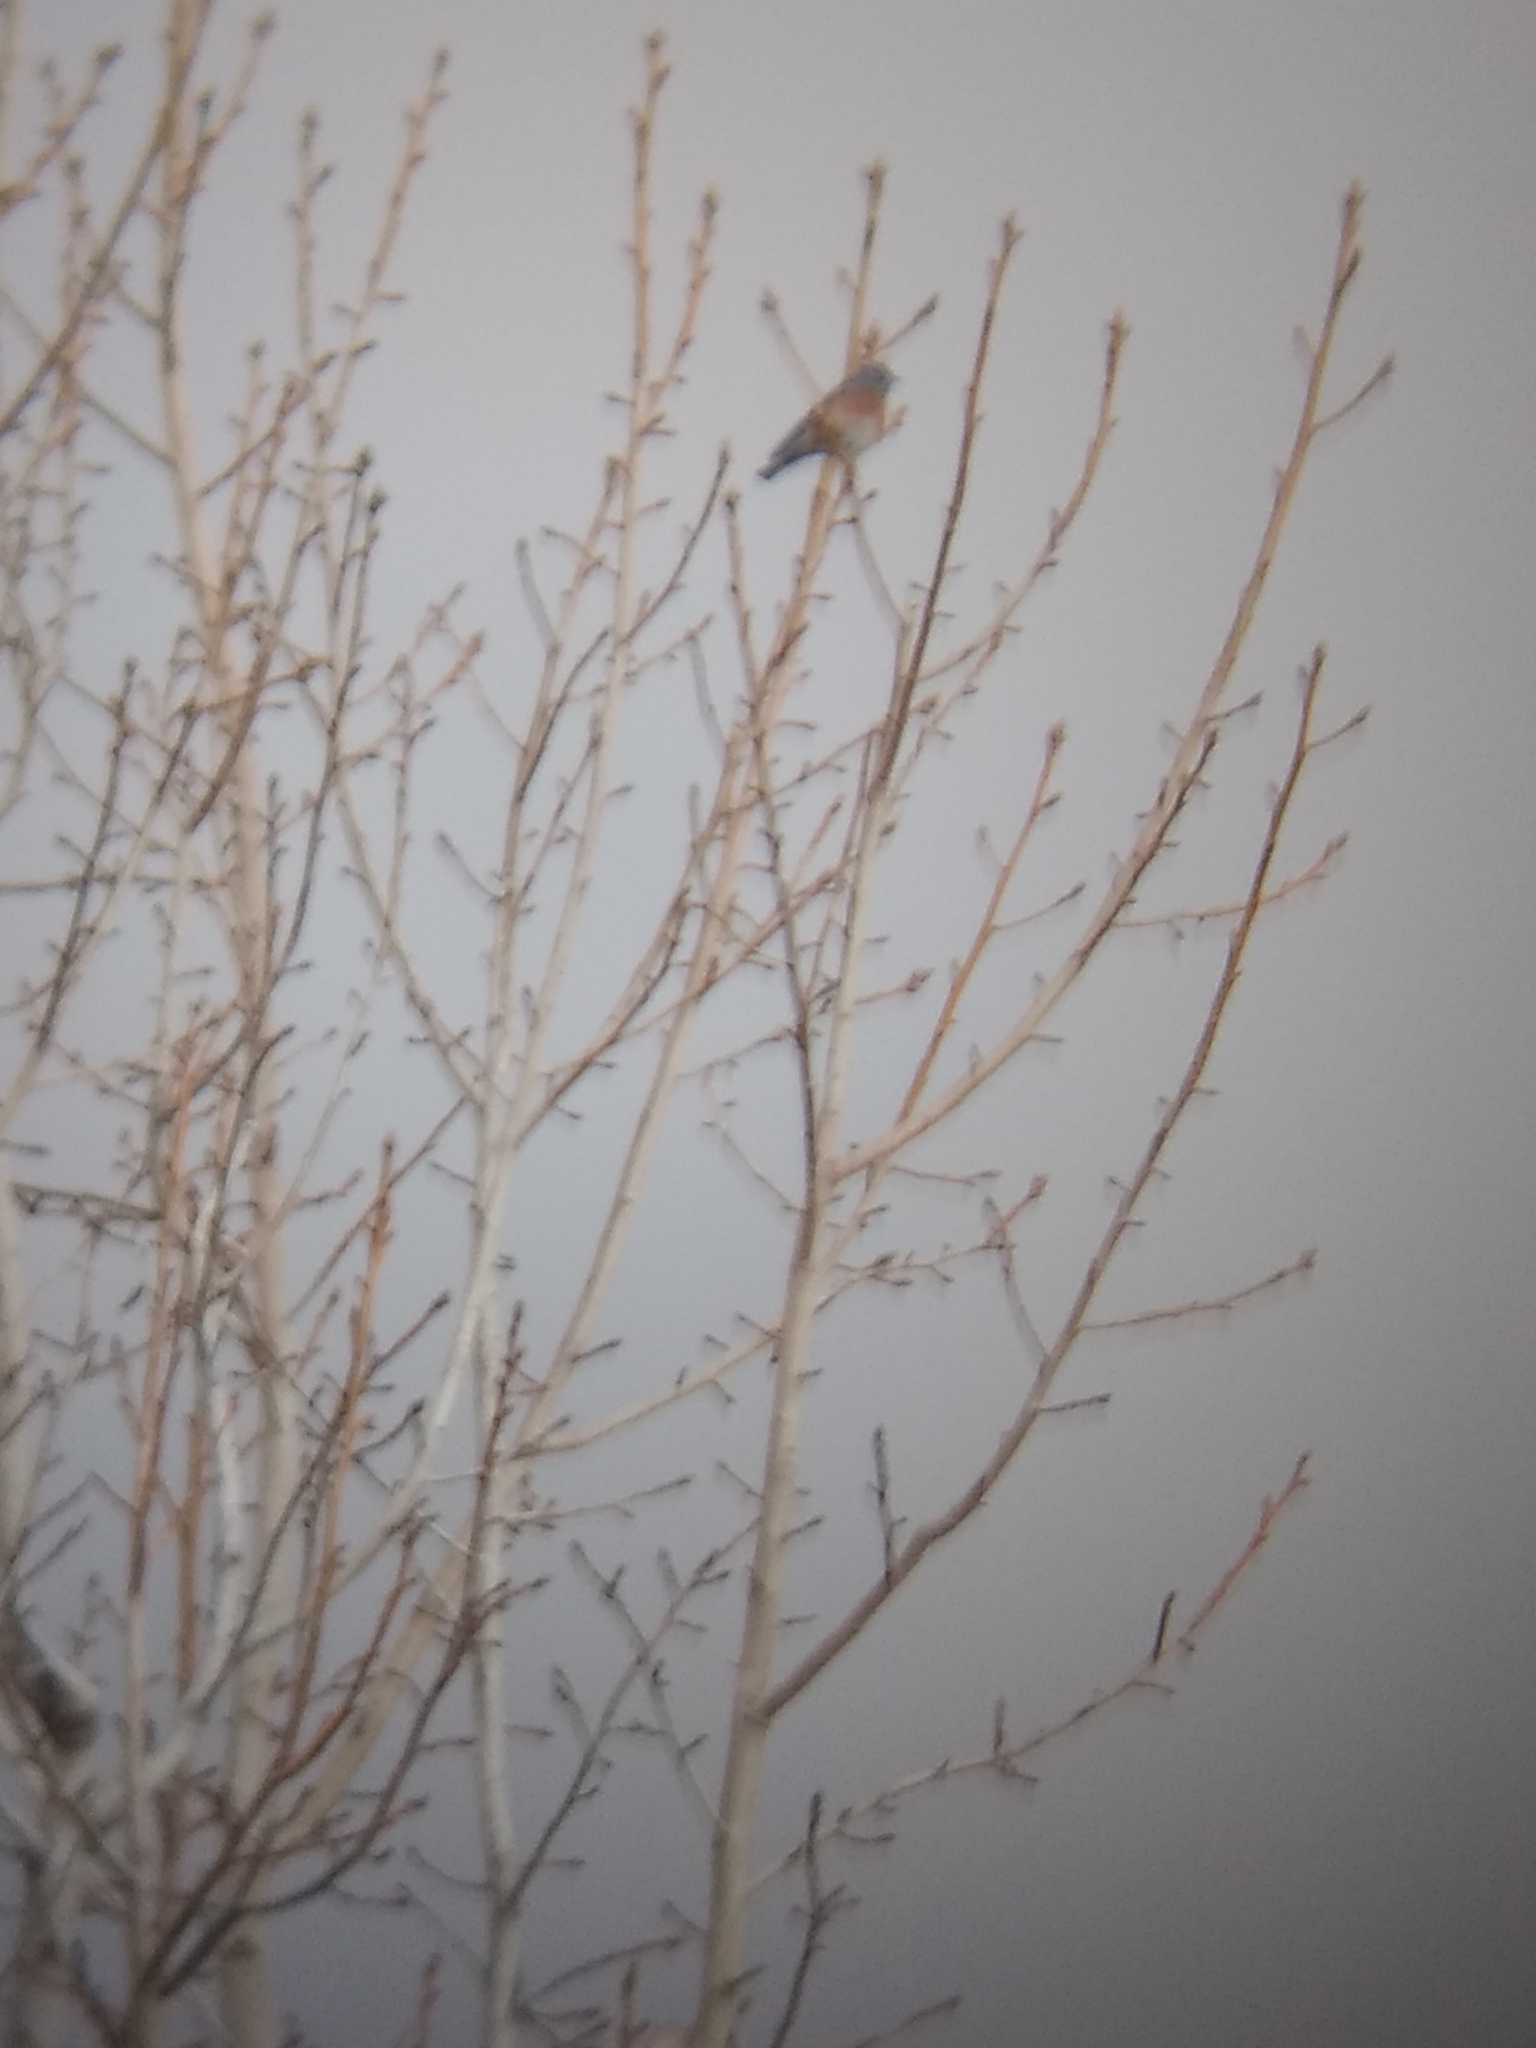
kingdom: Animalia
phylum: Chordata
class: Aves
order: Passeriformes
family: Turdidae
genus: Sialia
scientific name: Sialia mexicana
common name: Western bluebird
